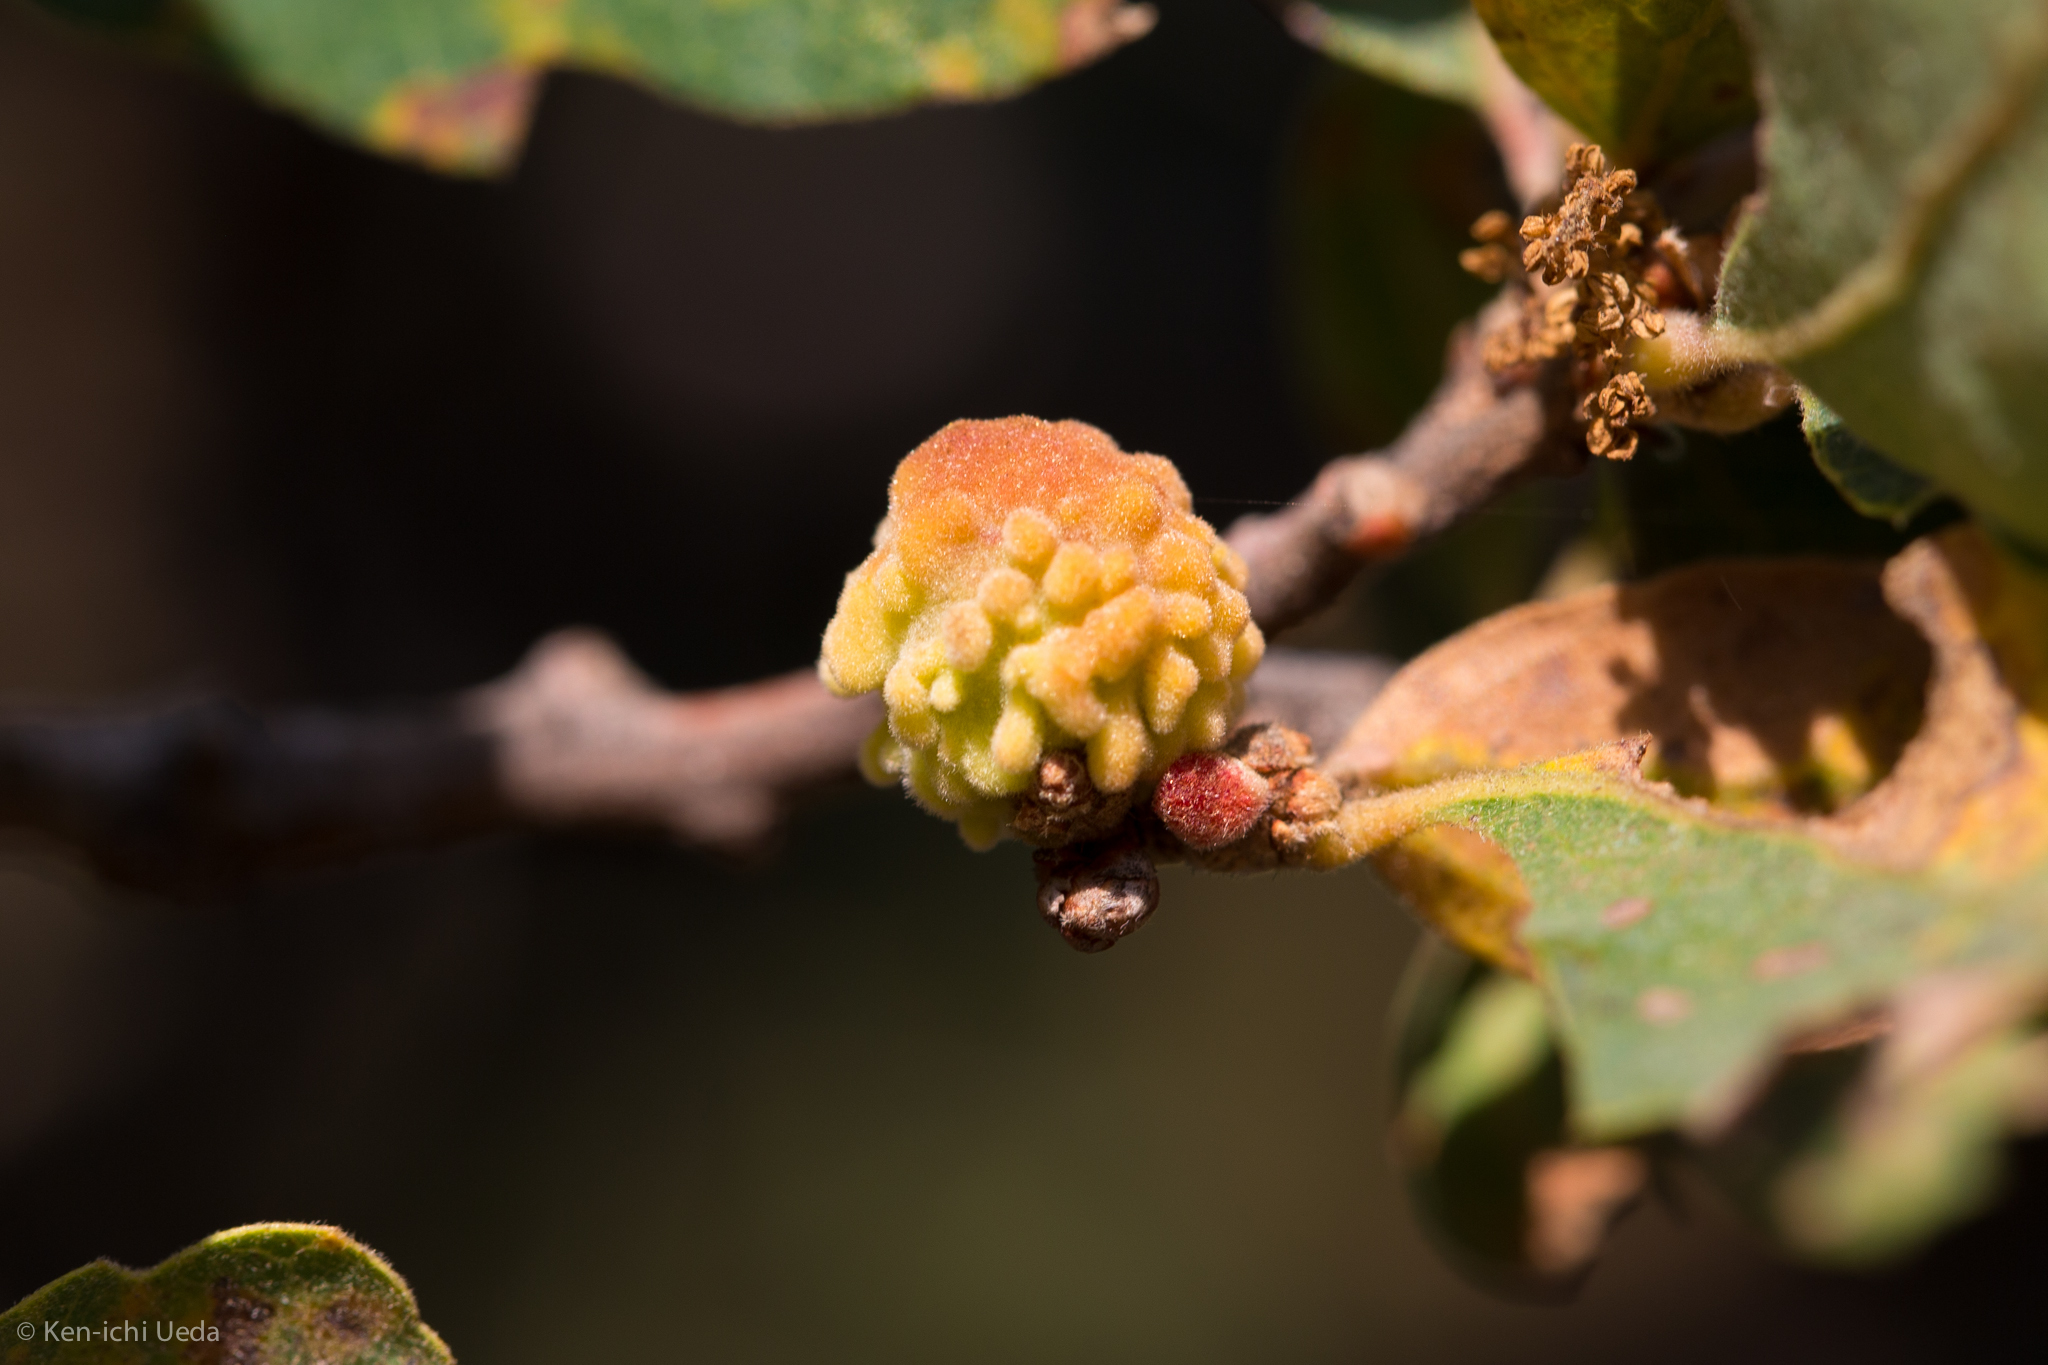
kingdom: Animalia
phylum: Arthropoda
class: Insecta
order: Hymenoptera
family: Cynipidae
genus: Burnettweldia
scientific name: Burnettweldia
